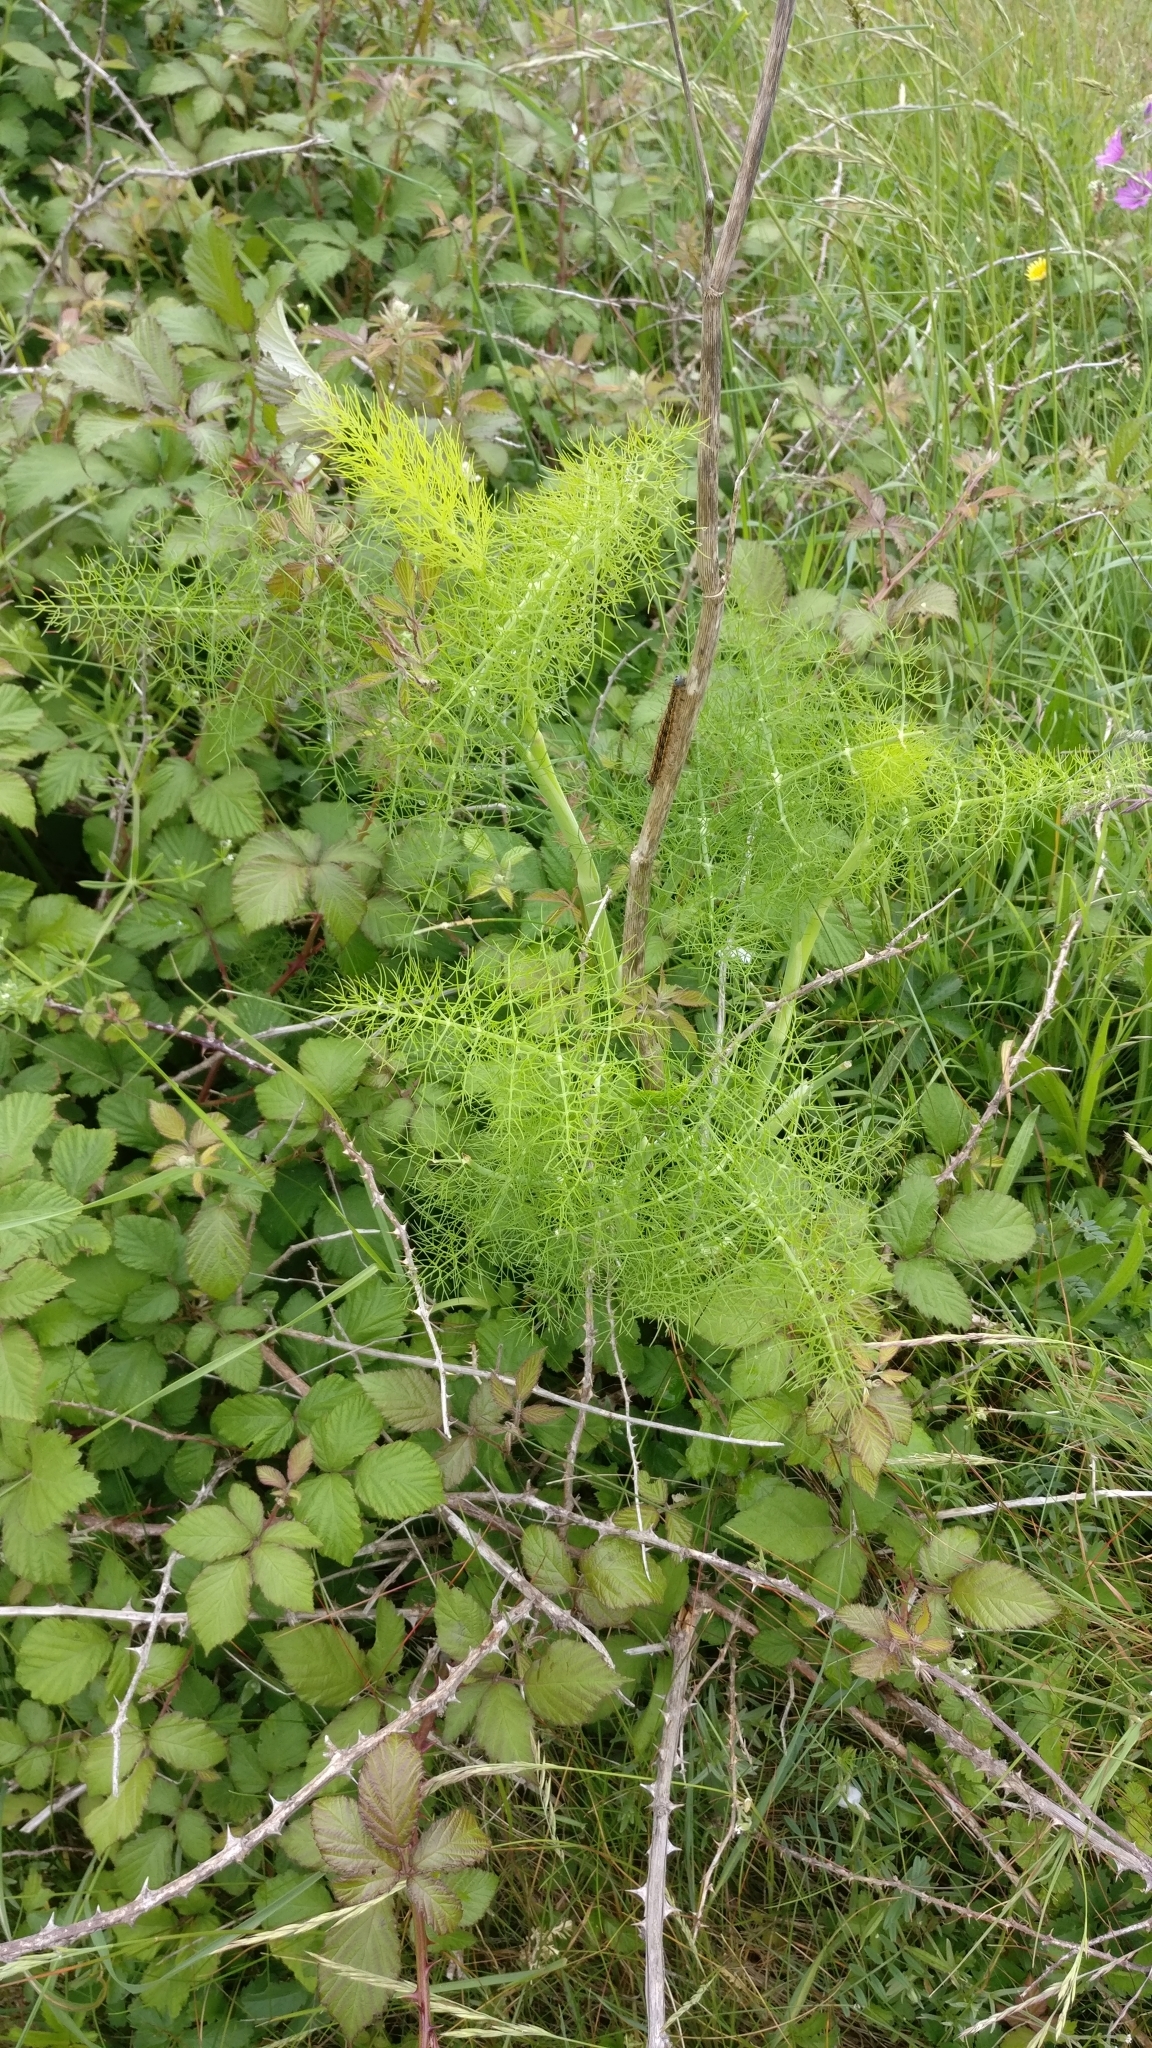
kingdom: Plantae
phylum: Tracheophyta
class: Magnoliopsida
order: Apiales
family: Apiaceae
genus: Foeniculum
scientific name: Foeniculum vulgare
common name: Fennel
